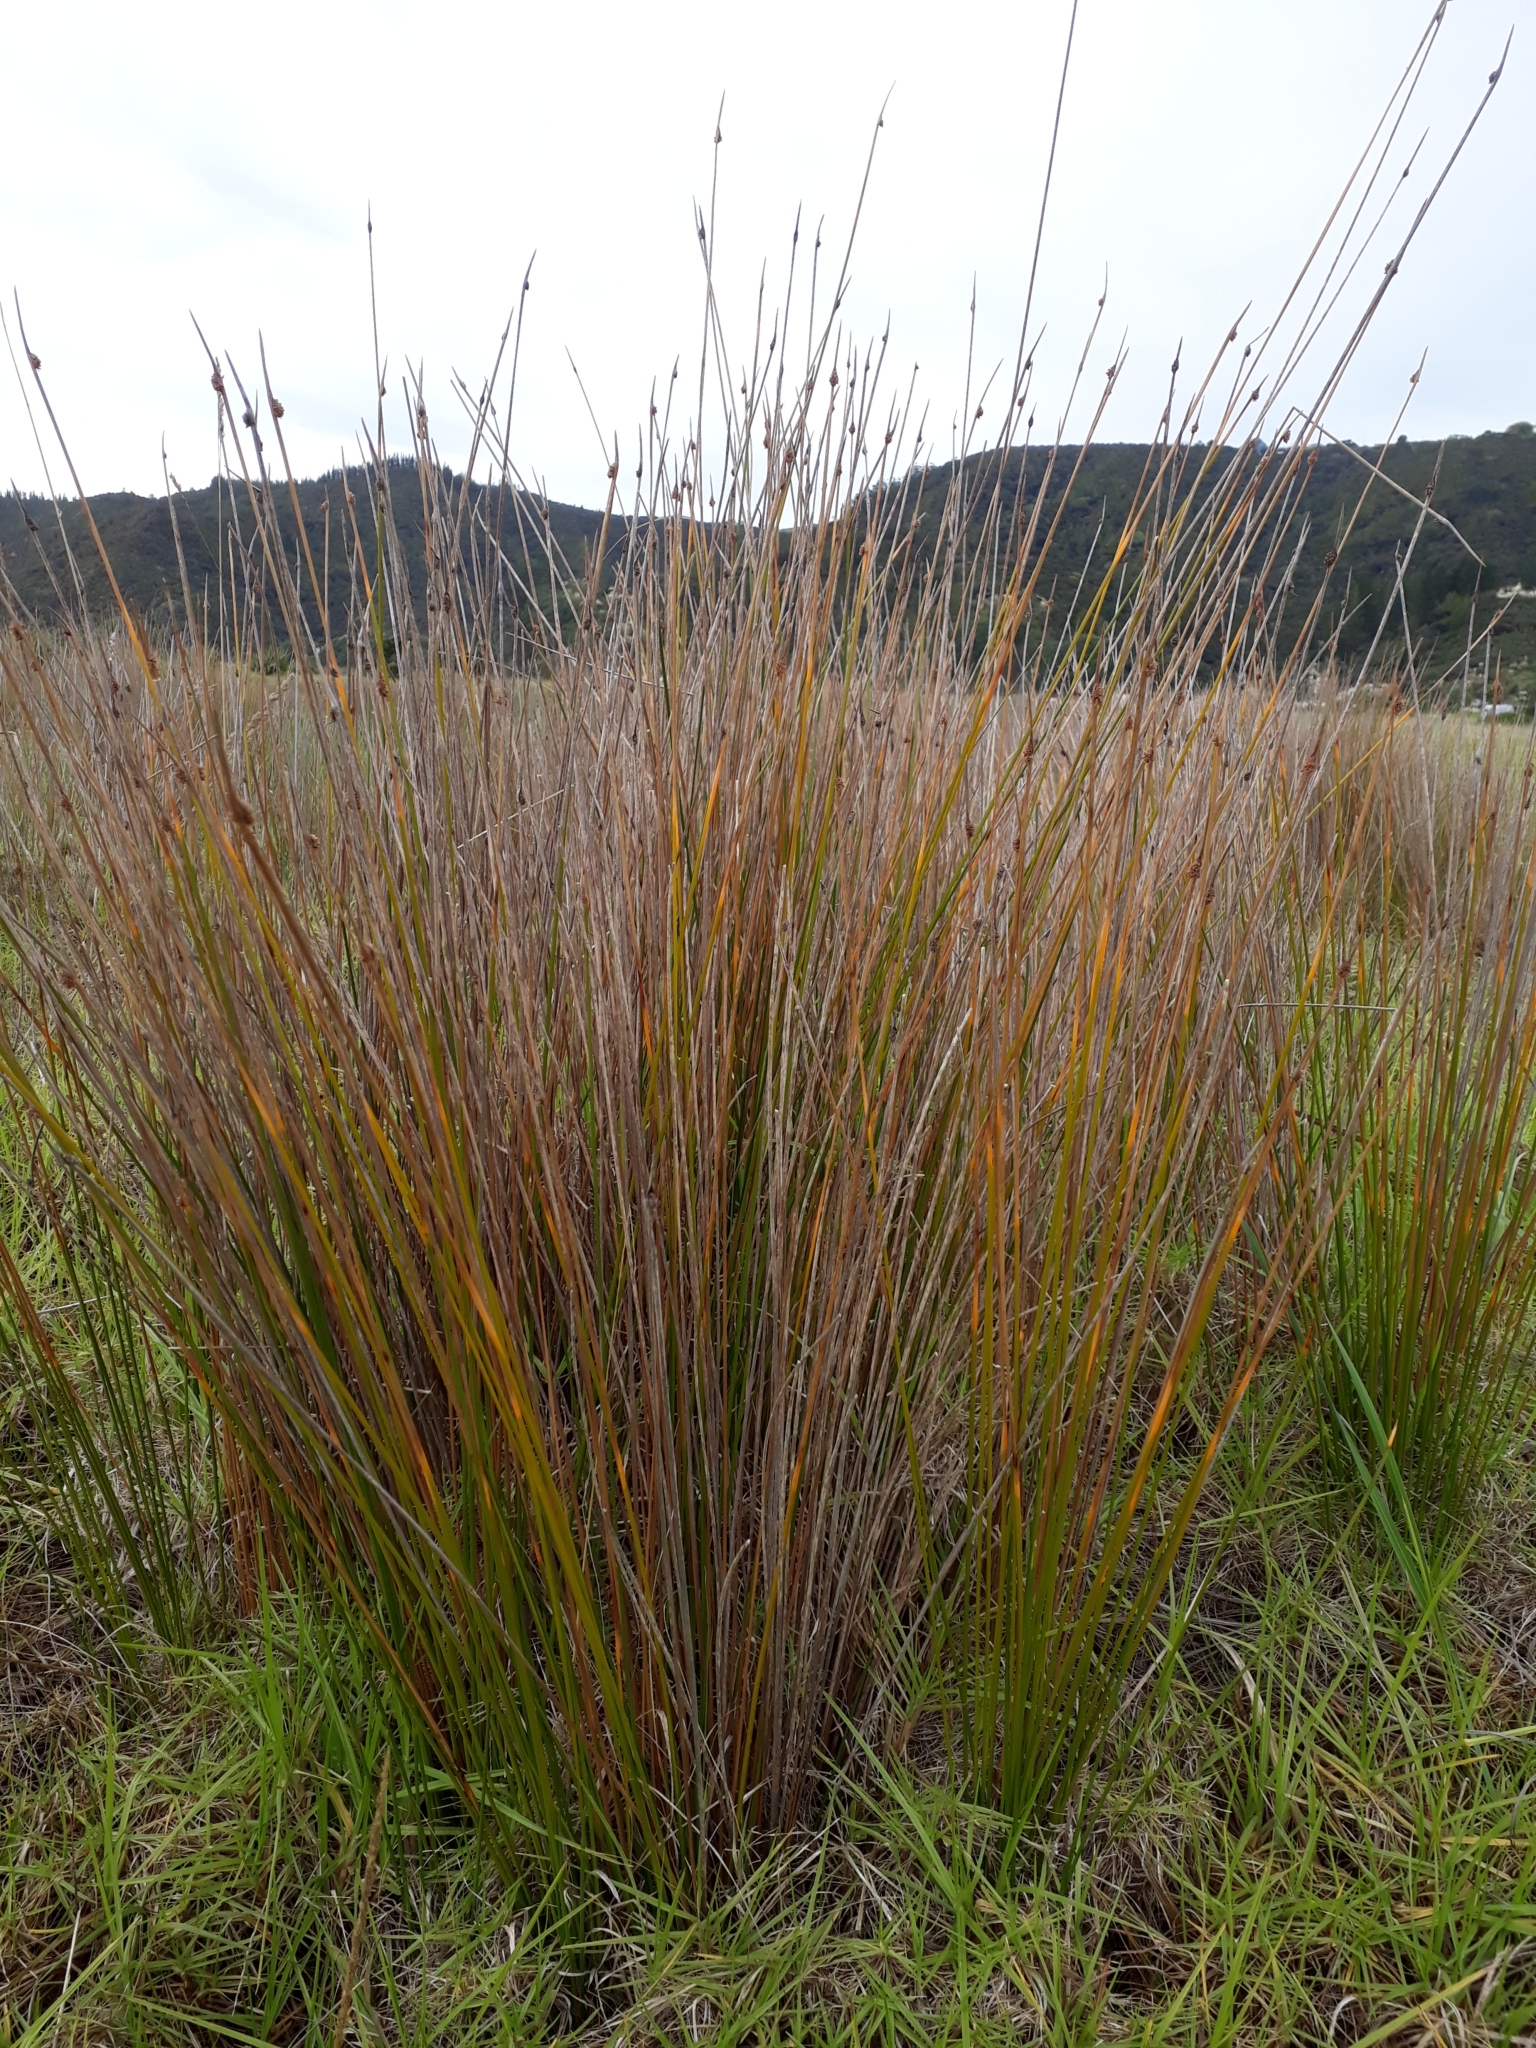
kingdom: Plantae
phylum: Tracheophyta
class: Liliopsida
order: Poales
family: Cyperaceae
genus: Ficinia
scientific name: Ficinia nodosa
